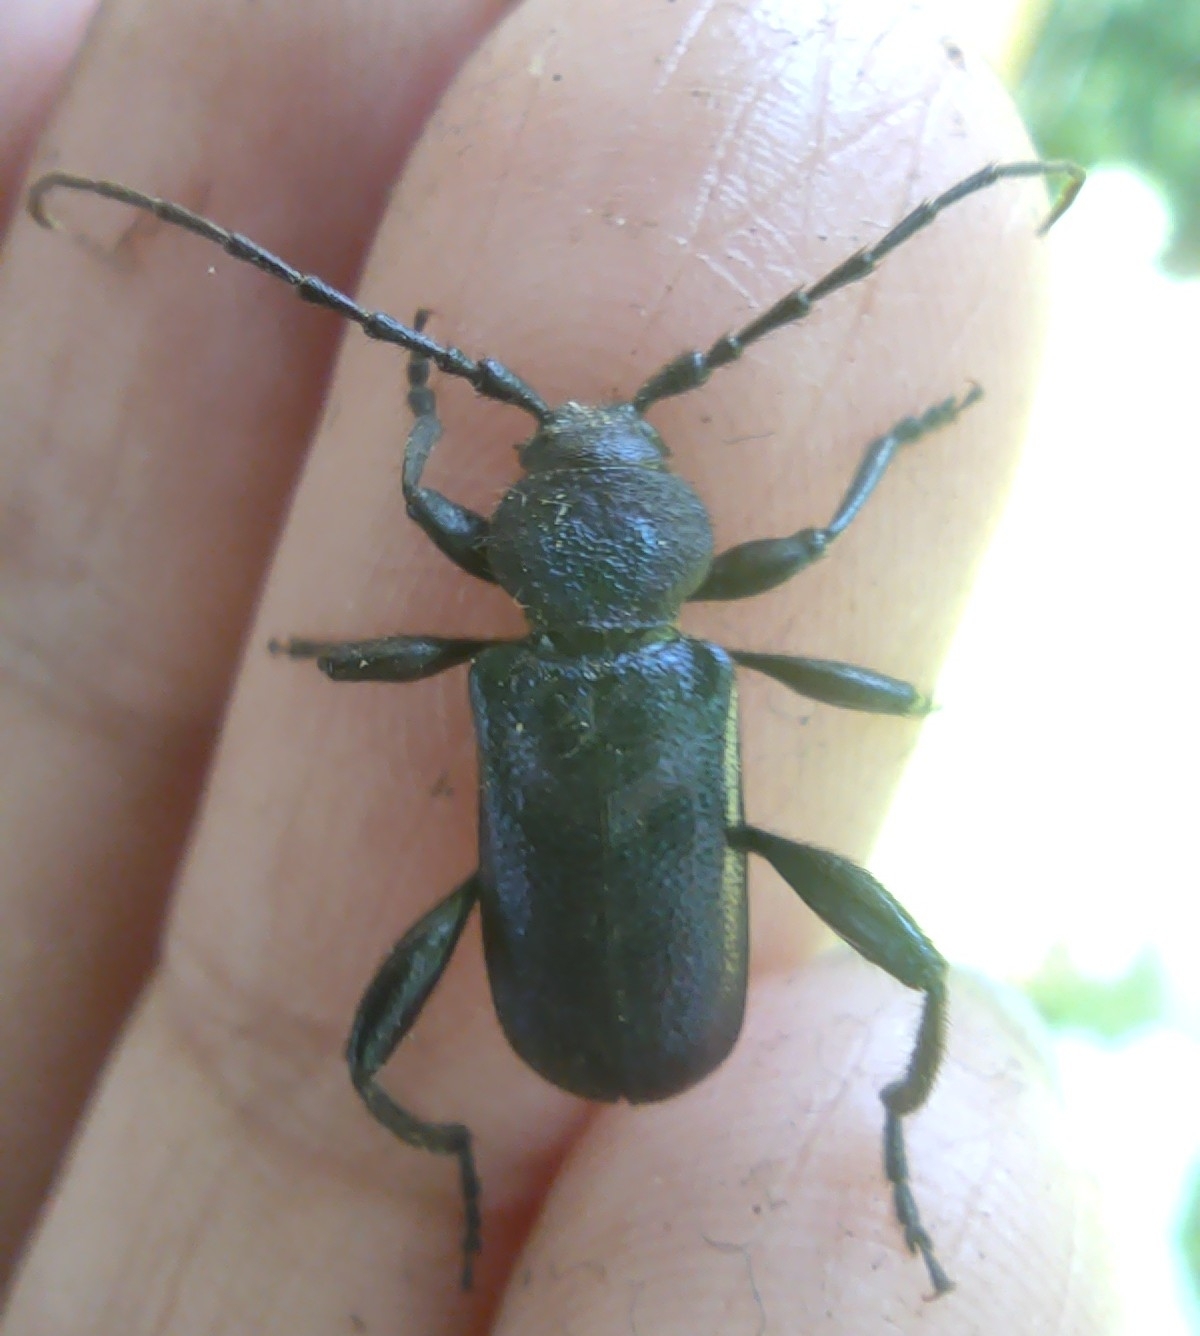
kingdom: Animalia
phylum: Arthropoda
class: Insecta
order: Coleoptera
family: Cerambycidae
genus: Callidium
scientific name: Callidium violaceum
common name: Violet tanbark beetle
